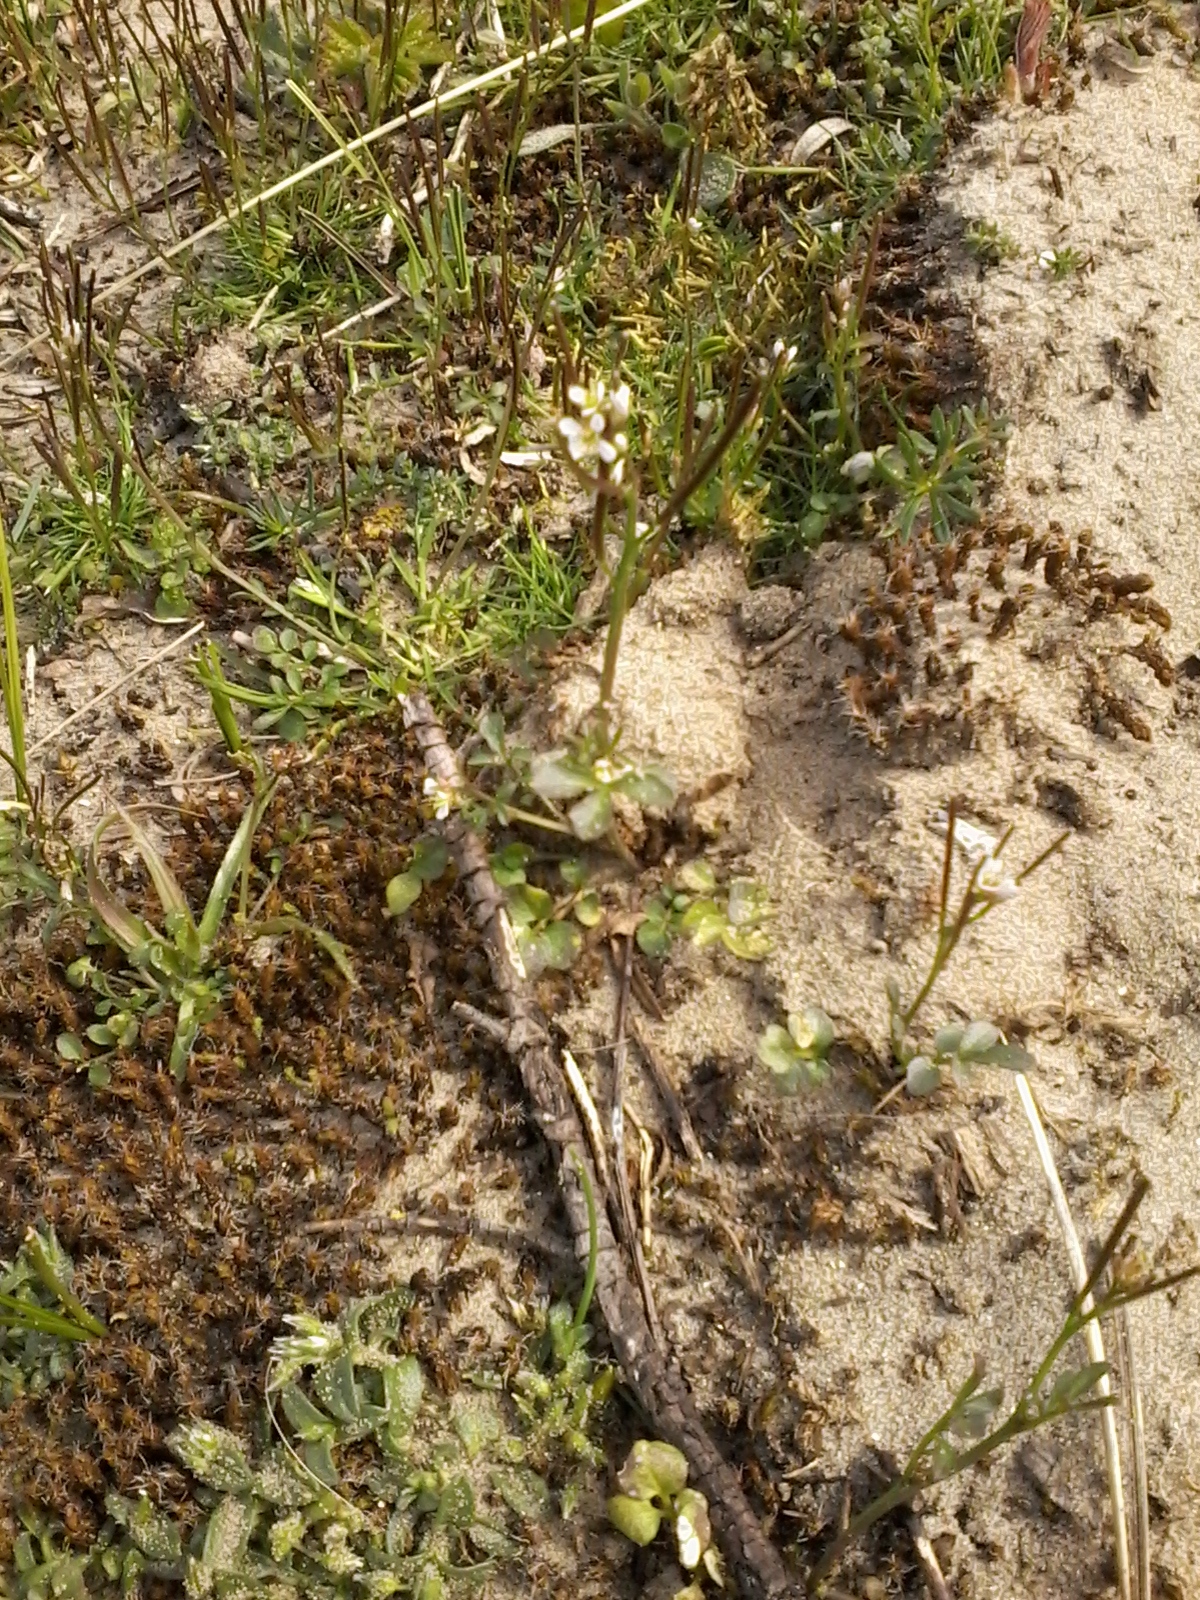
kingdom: Plantae
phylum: Tracheophyta
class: Magnoliopsida
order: Brassicales
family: Brassicaceae
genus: Cardamine
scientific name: Cardamine hirsuta
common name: Hairy bittercress
